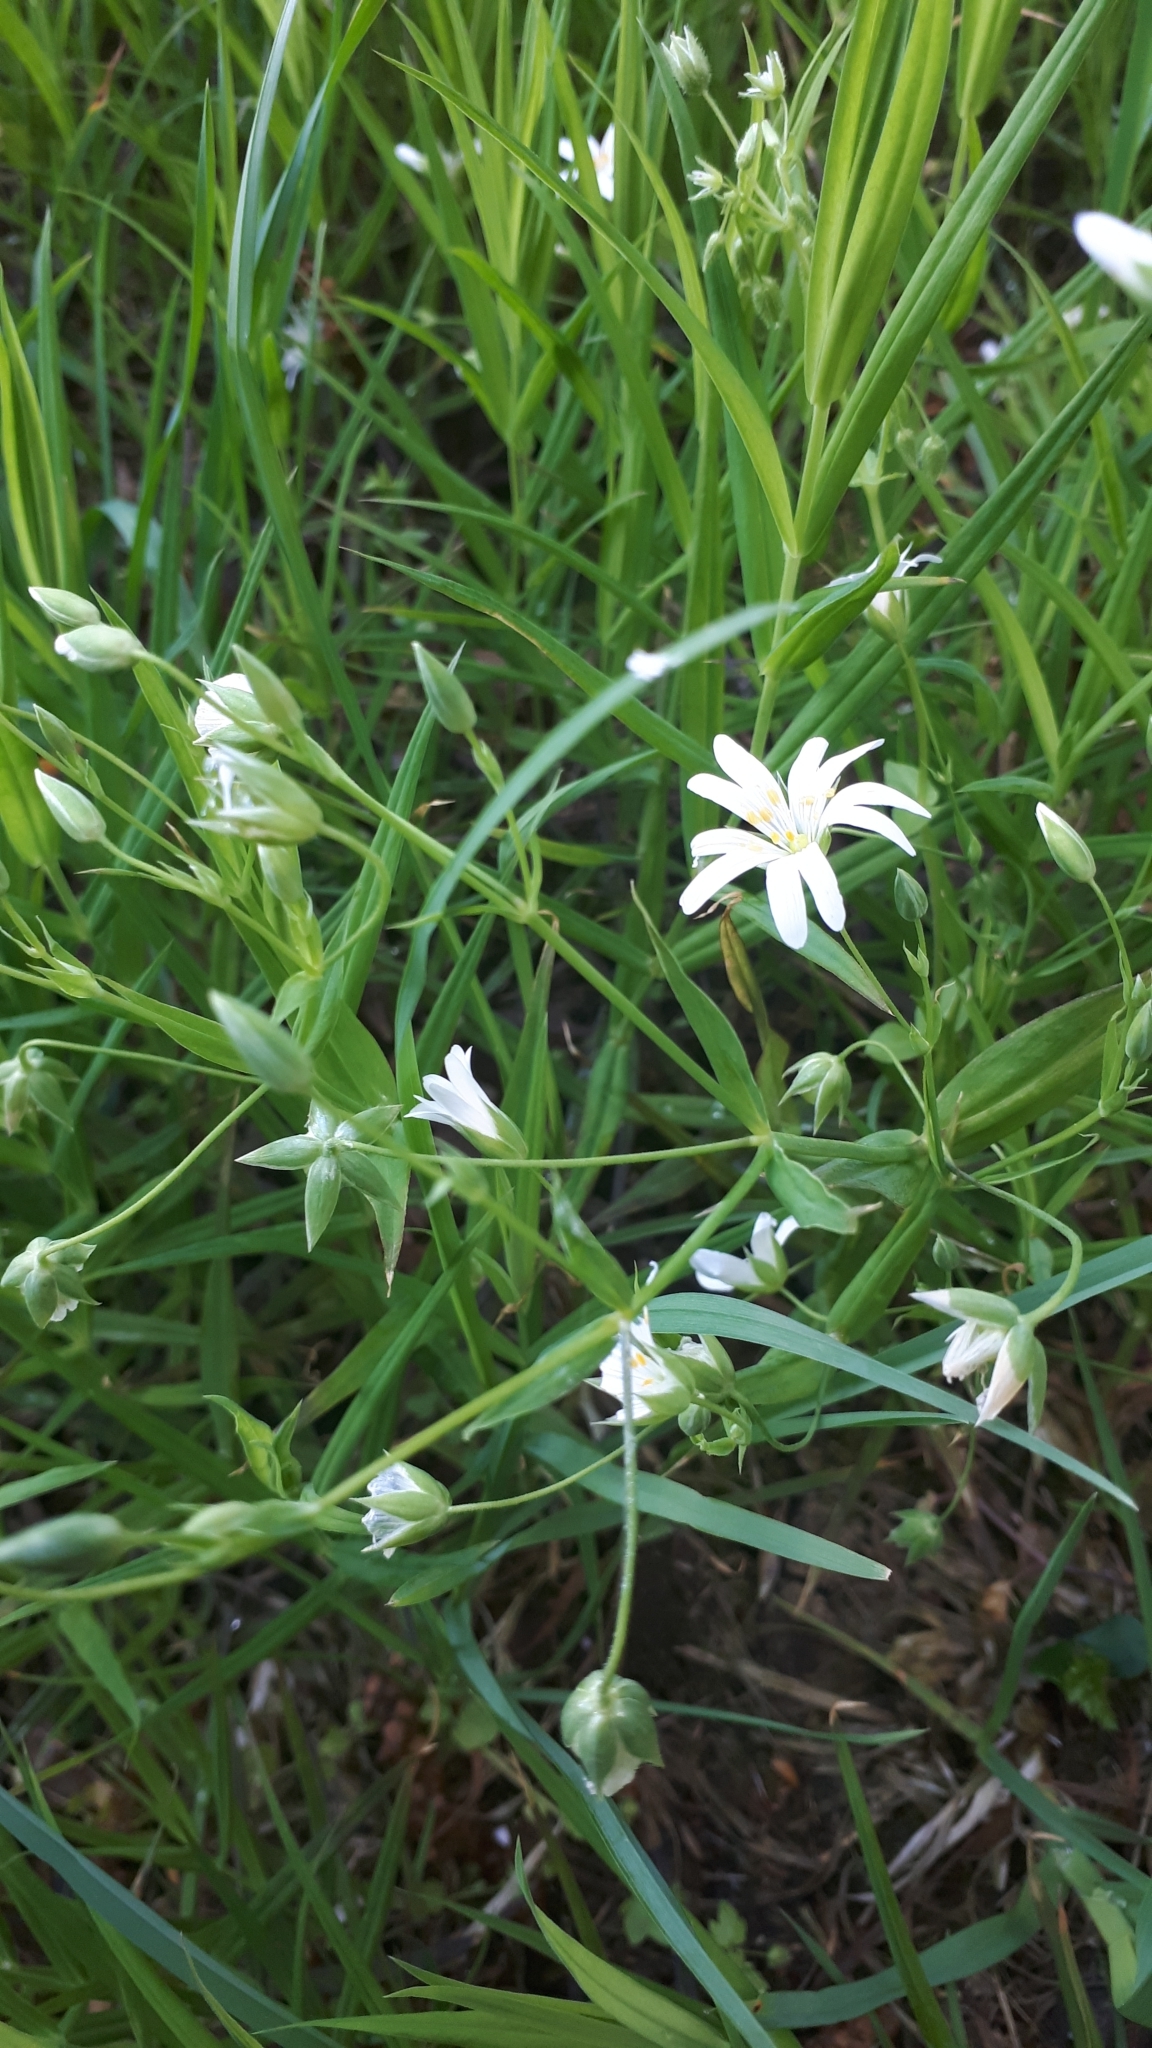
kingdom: Plantae
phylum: Tracheophyta
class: Magnoliopsida
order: Caryophyllales
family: Caryophyllaceae
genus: Rabelera
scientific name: Rabelera holostea
